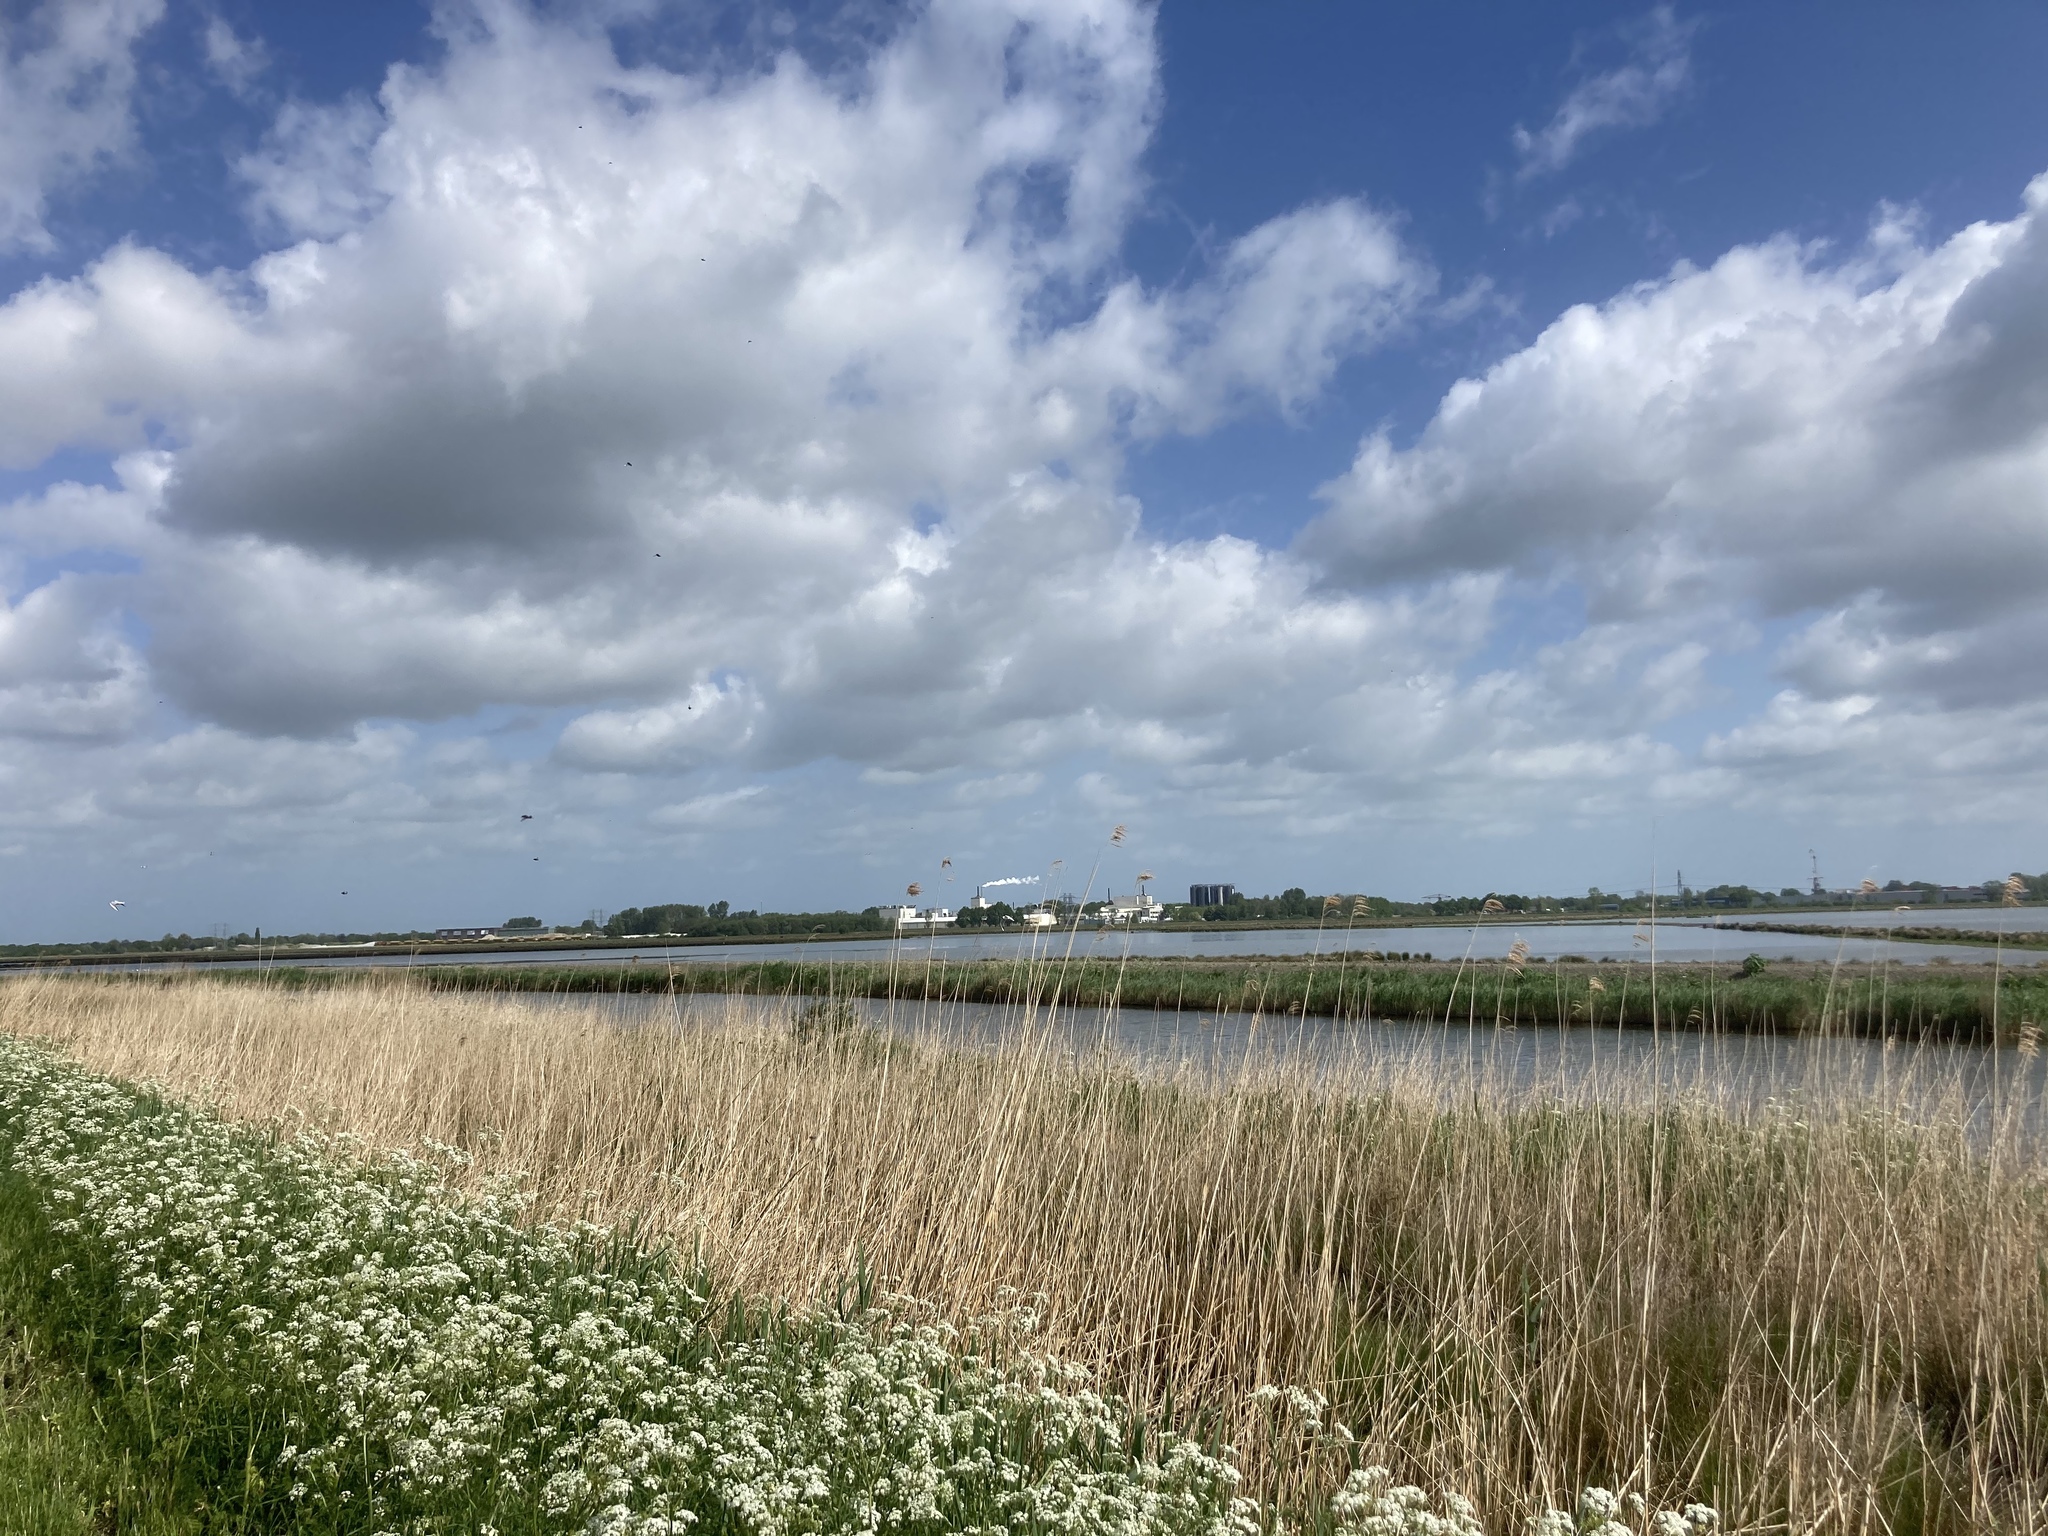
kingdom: Plantae
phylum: Tracheophyta
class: Liliopsida
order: Poales
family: Poaceae
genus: Phragmites
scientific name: Phragmites australis
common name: Common reed
